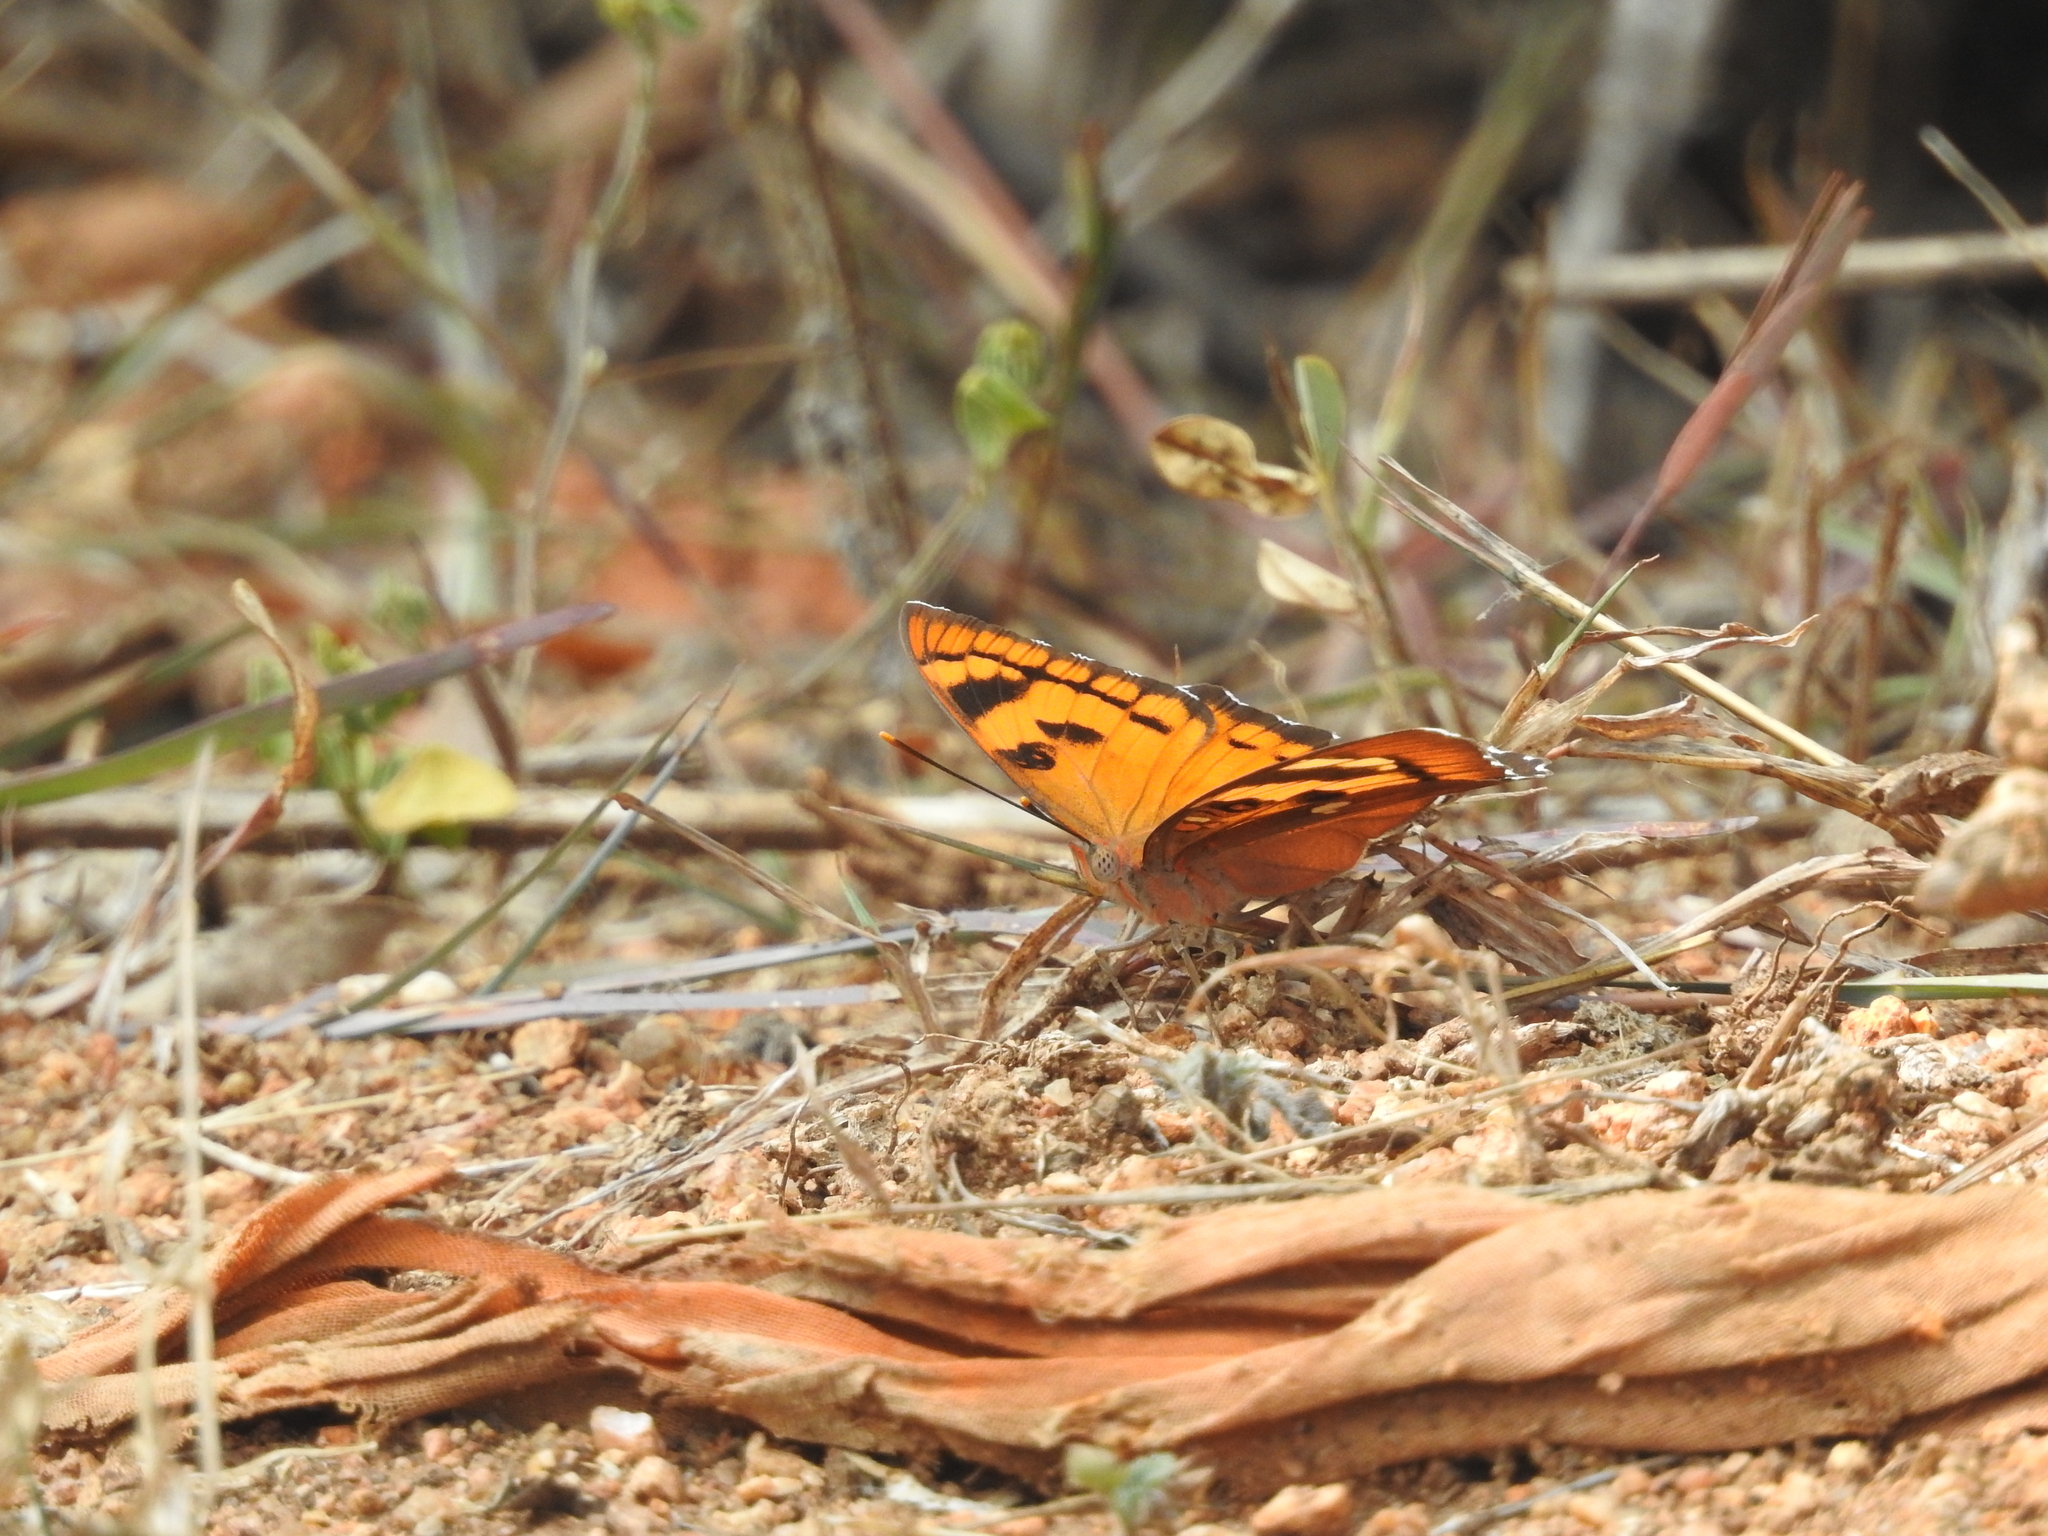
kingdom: Animalia
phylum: Arthropoda
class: Insecta
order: Lepidoptera
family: Nymphalidae
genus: Euthalia
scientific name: Euthalia nais
